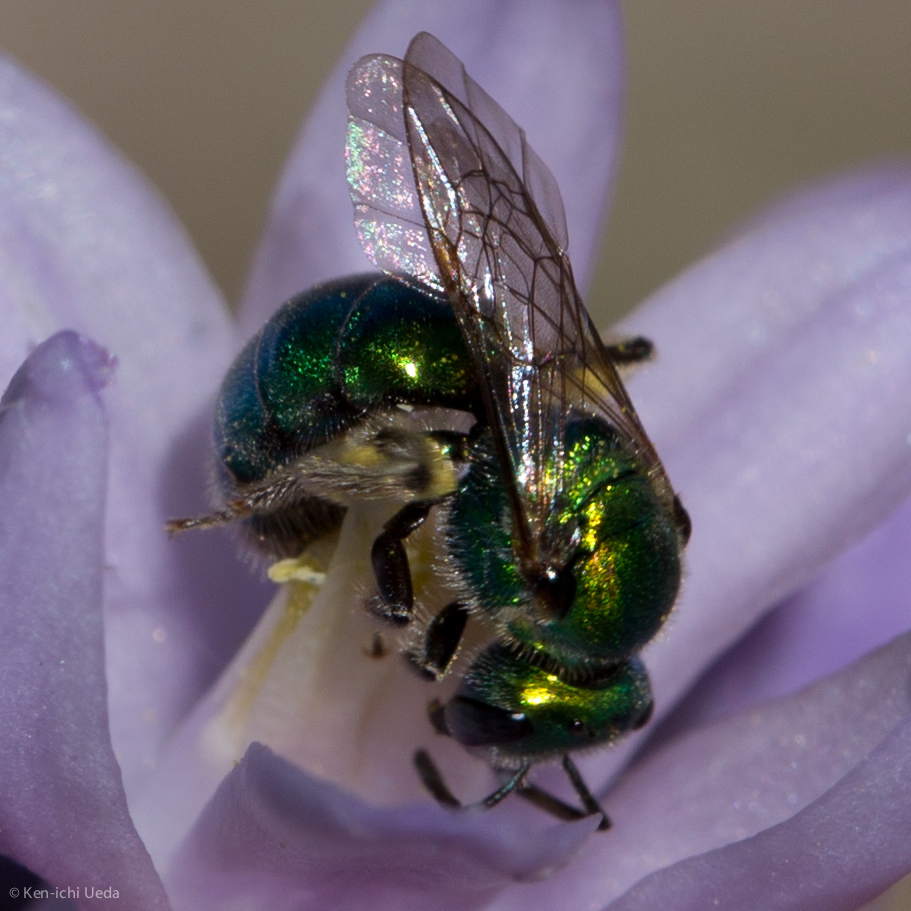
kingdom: Animalia
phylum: Arthropoda
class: Insecta
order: Hymenoptera
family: Halictidae
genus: Augochlorella
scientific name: Augochlorella pomoniella
